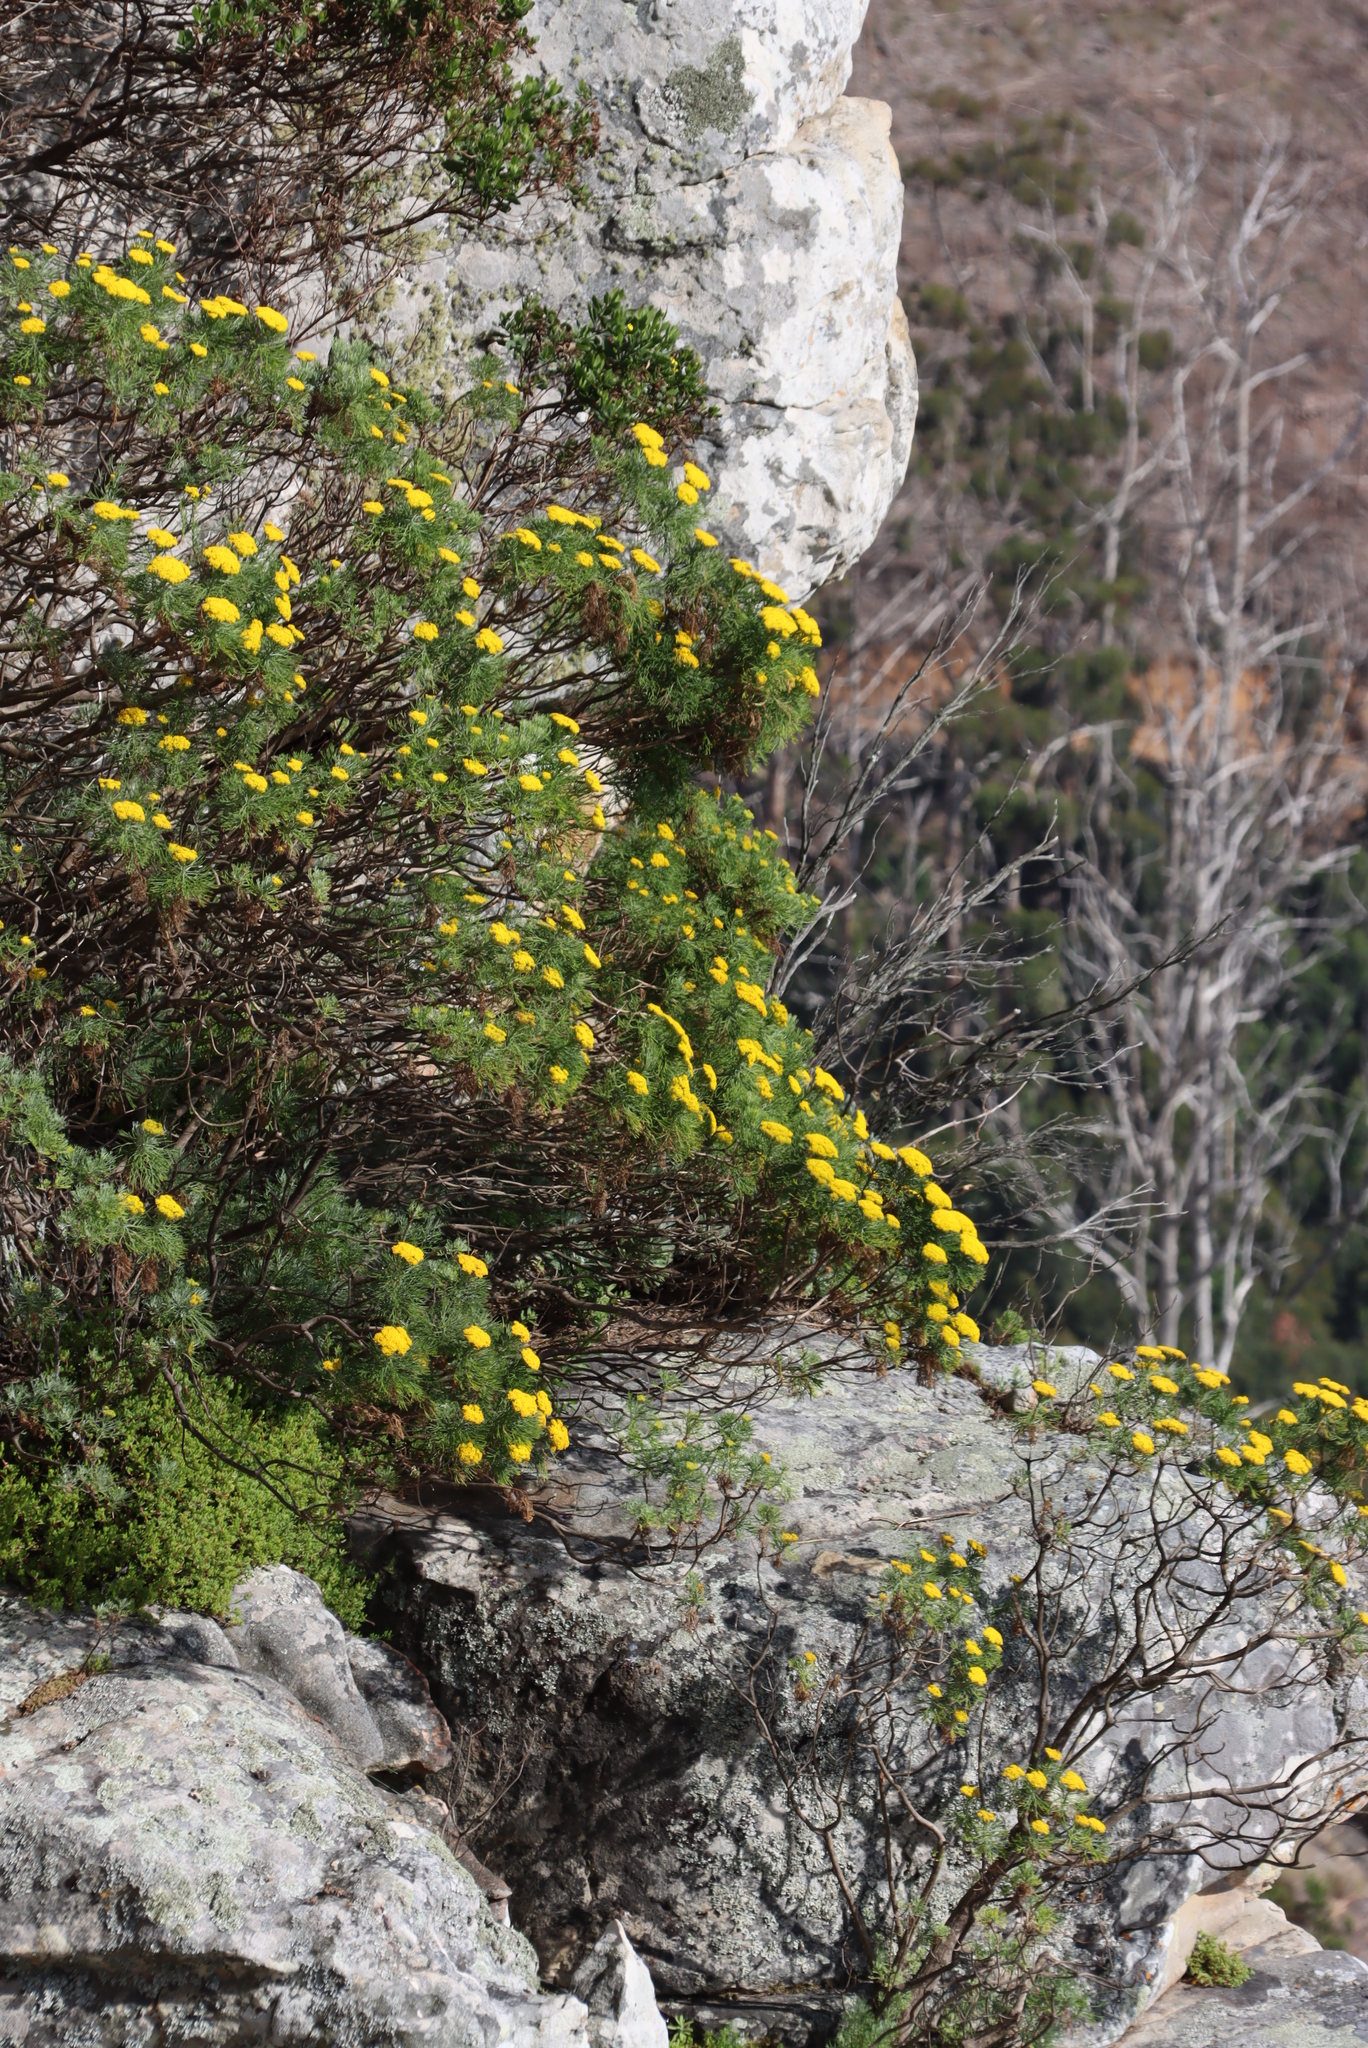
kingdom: Plantae
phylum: Tracheophyta
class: Magnoliopsida
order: Asterales
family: Asteraceae
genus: Hymenolepis
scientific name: Hymenolepis crithmifolia
